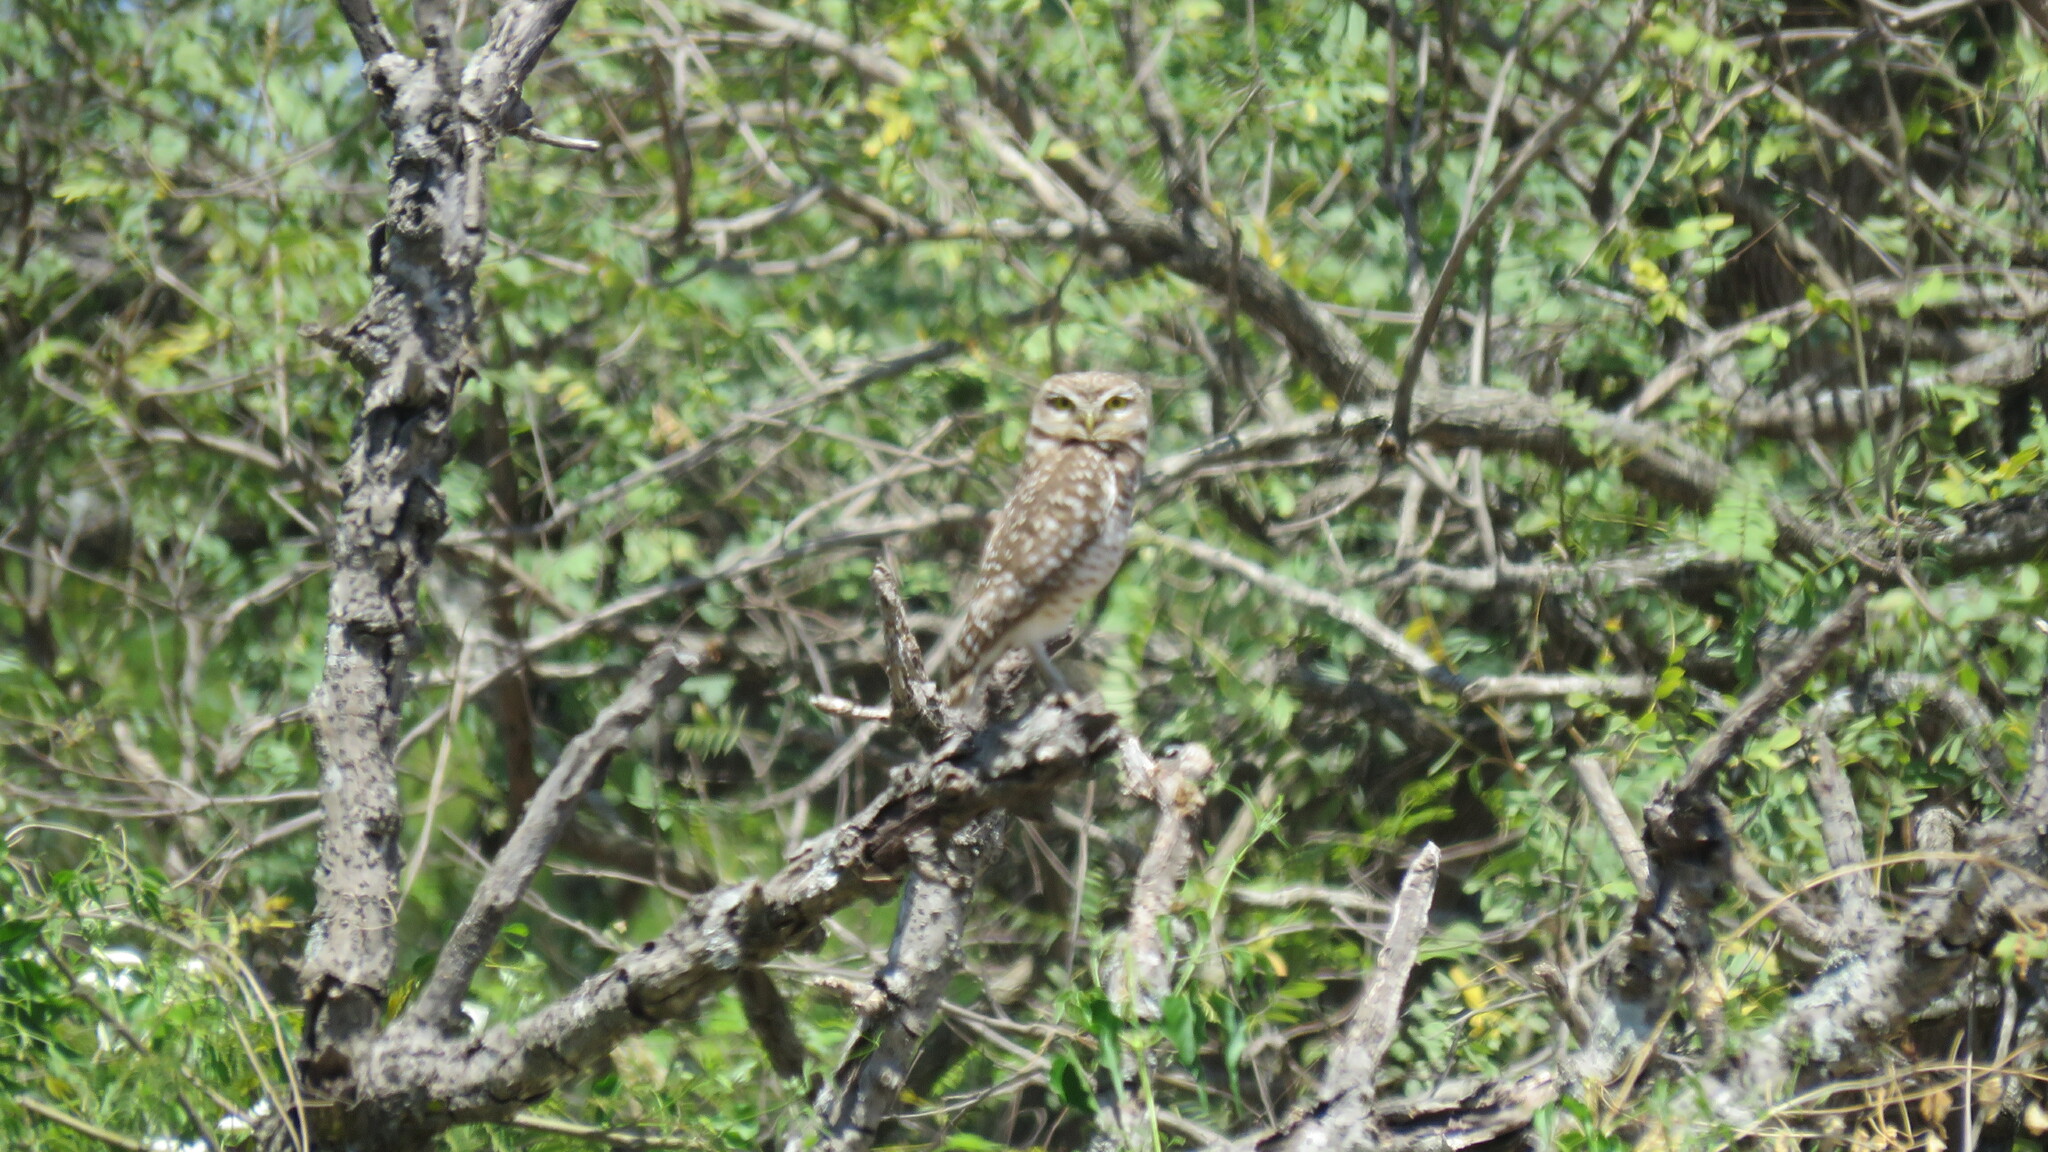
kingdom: Animalia
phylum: Chordata
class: Aves
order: Strigiformes
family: Strigidae
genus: Athene
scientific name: Athene cunicularia
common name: Burrowing owl
